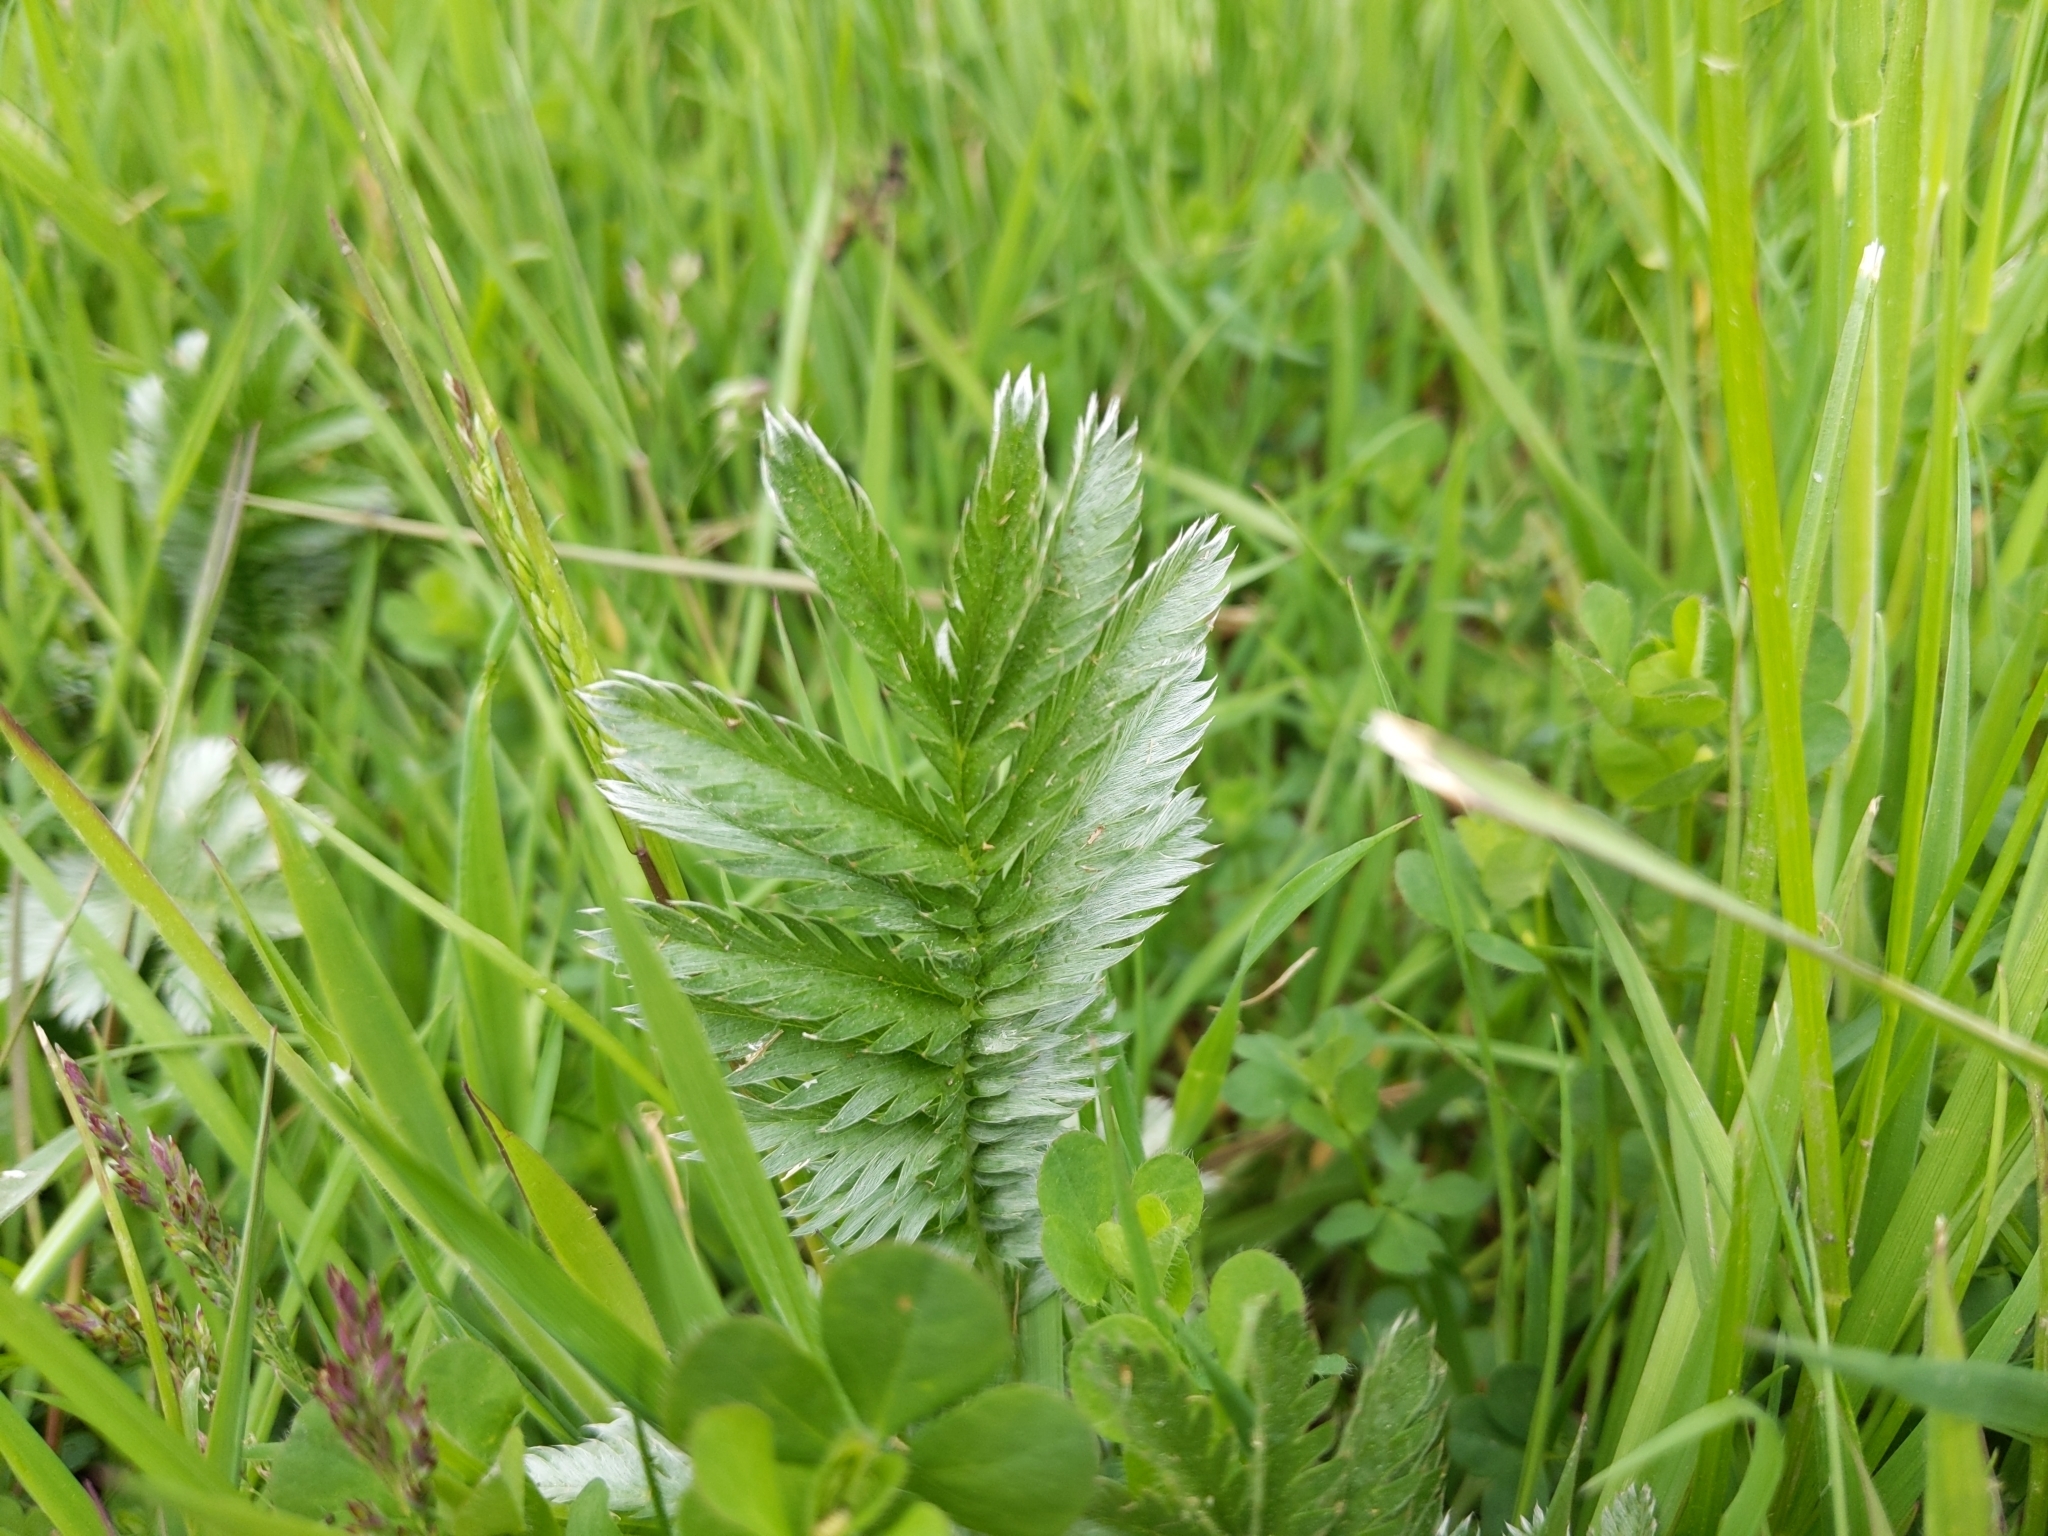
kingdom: Plantae
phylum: Tracheophyta
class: Magnoliopsida
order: Rosales
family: Rosaceae
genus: Argentina
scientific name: Argentina anserina
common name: Common silverweed
